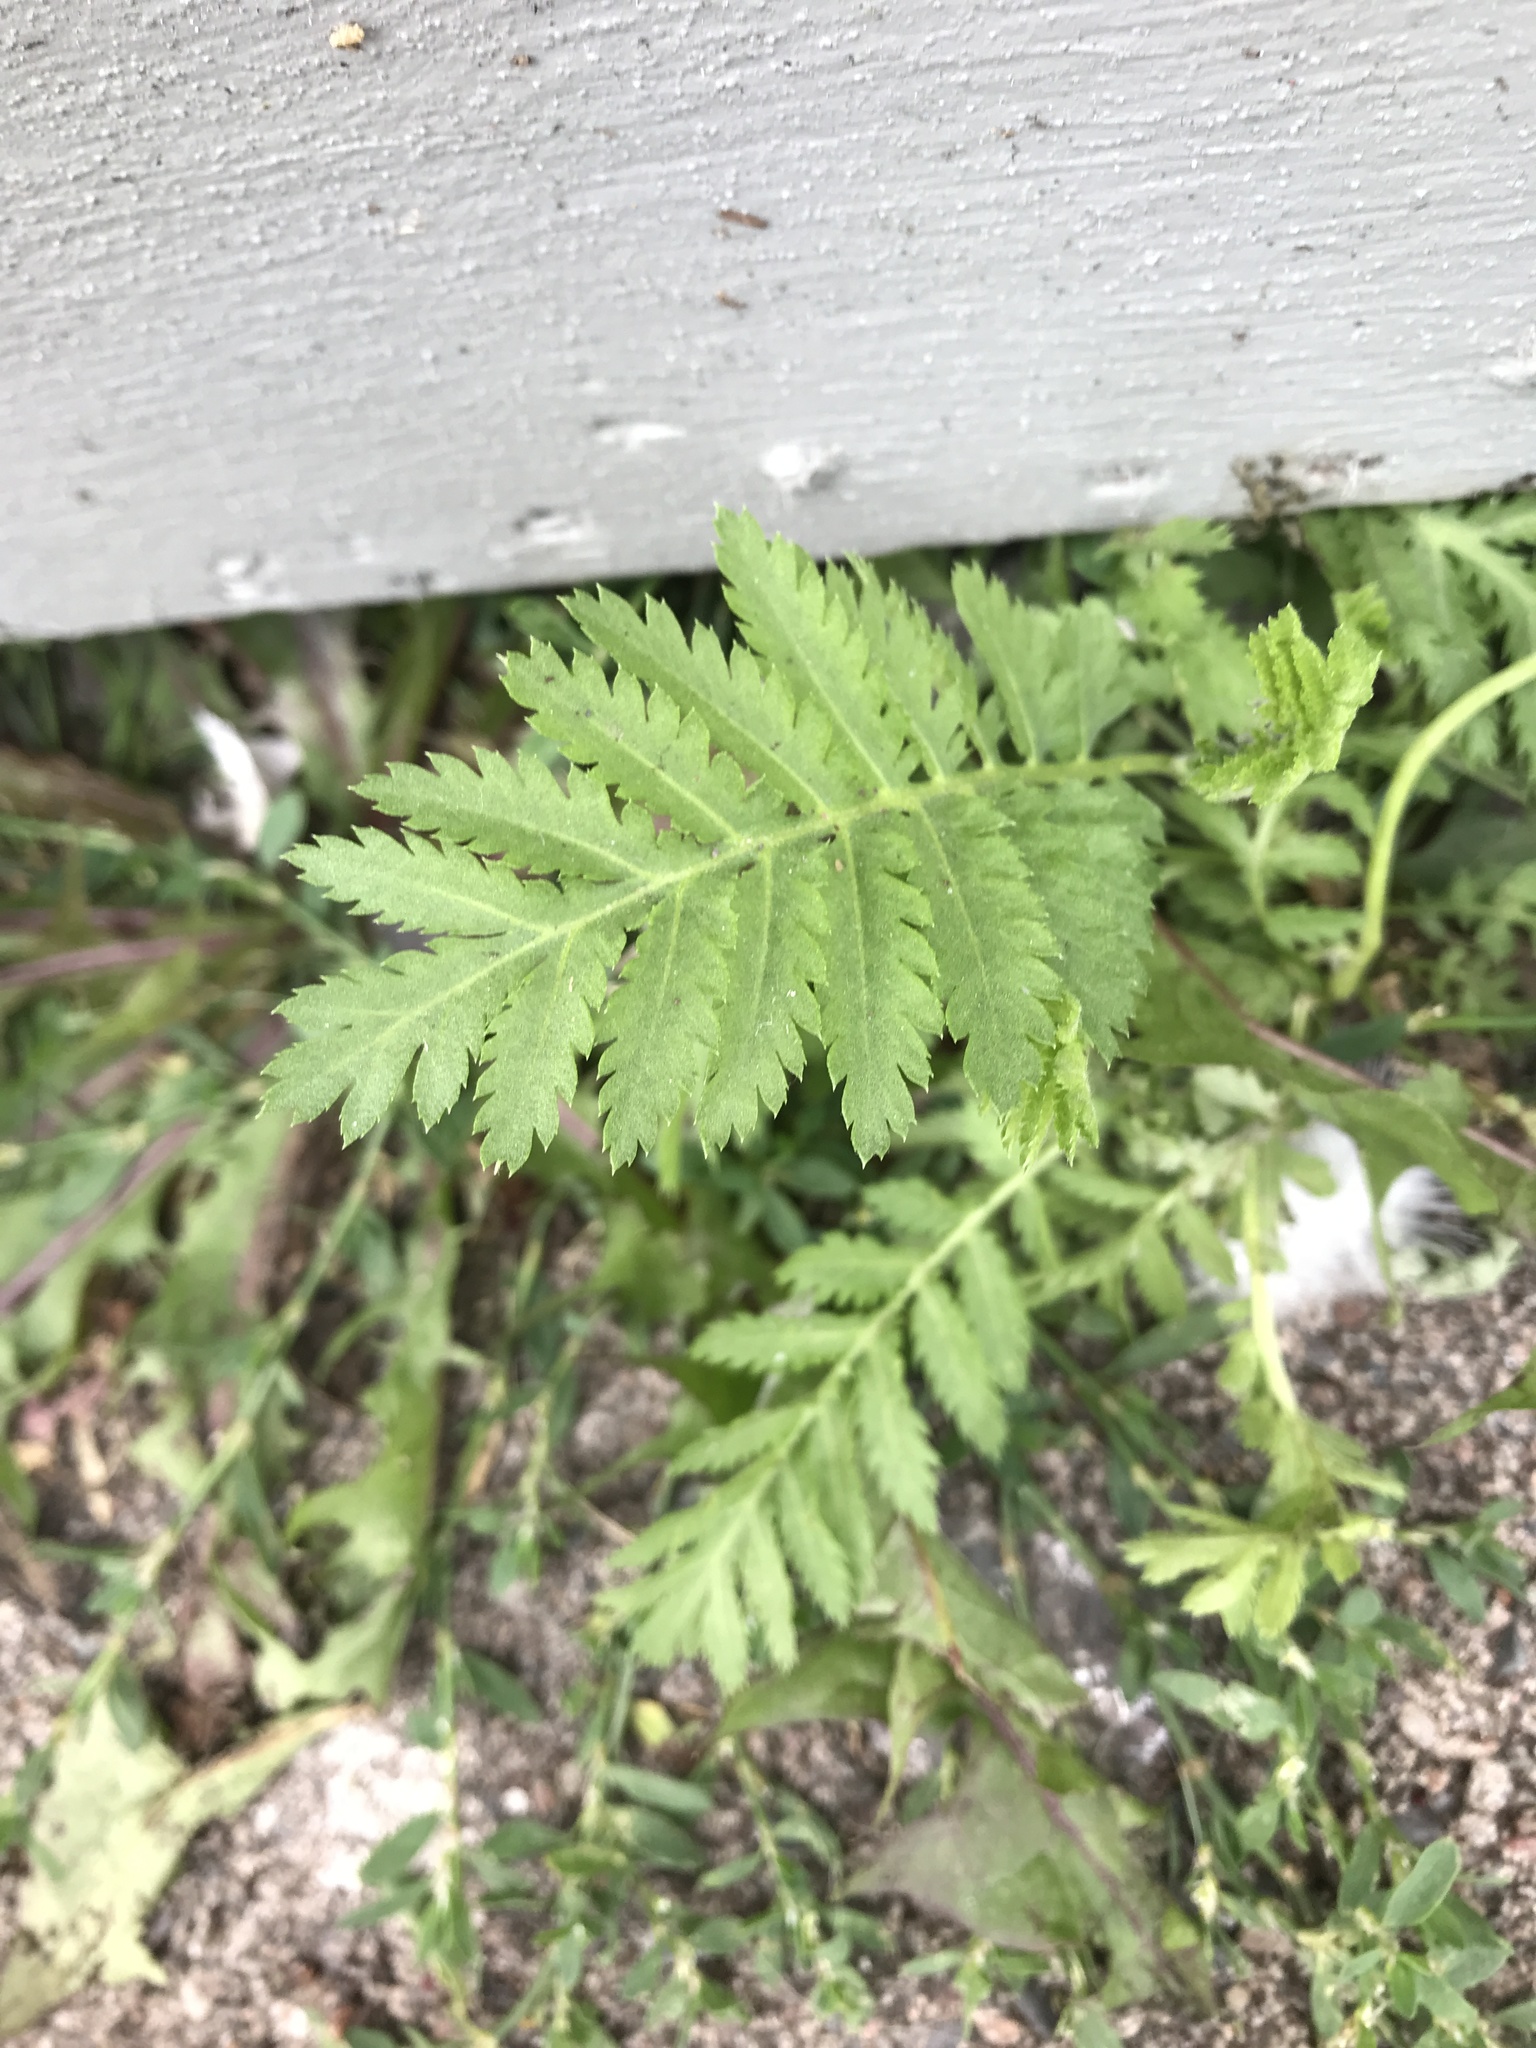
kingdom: Plantae
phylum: Tracheophyta
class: Magnoliopsida
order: Asterales
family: Asteraceae
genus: Tanacetum
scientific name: Tanacetum vulgare
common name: Common tansy
